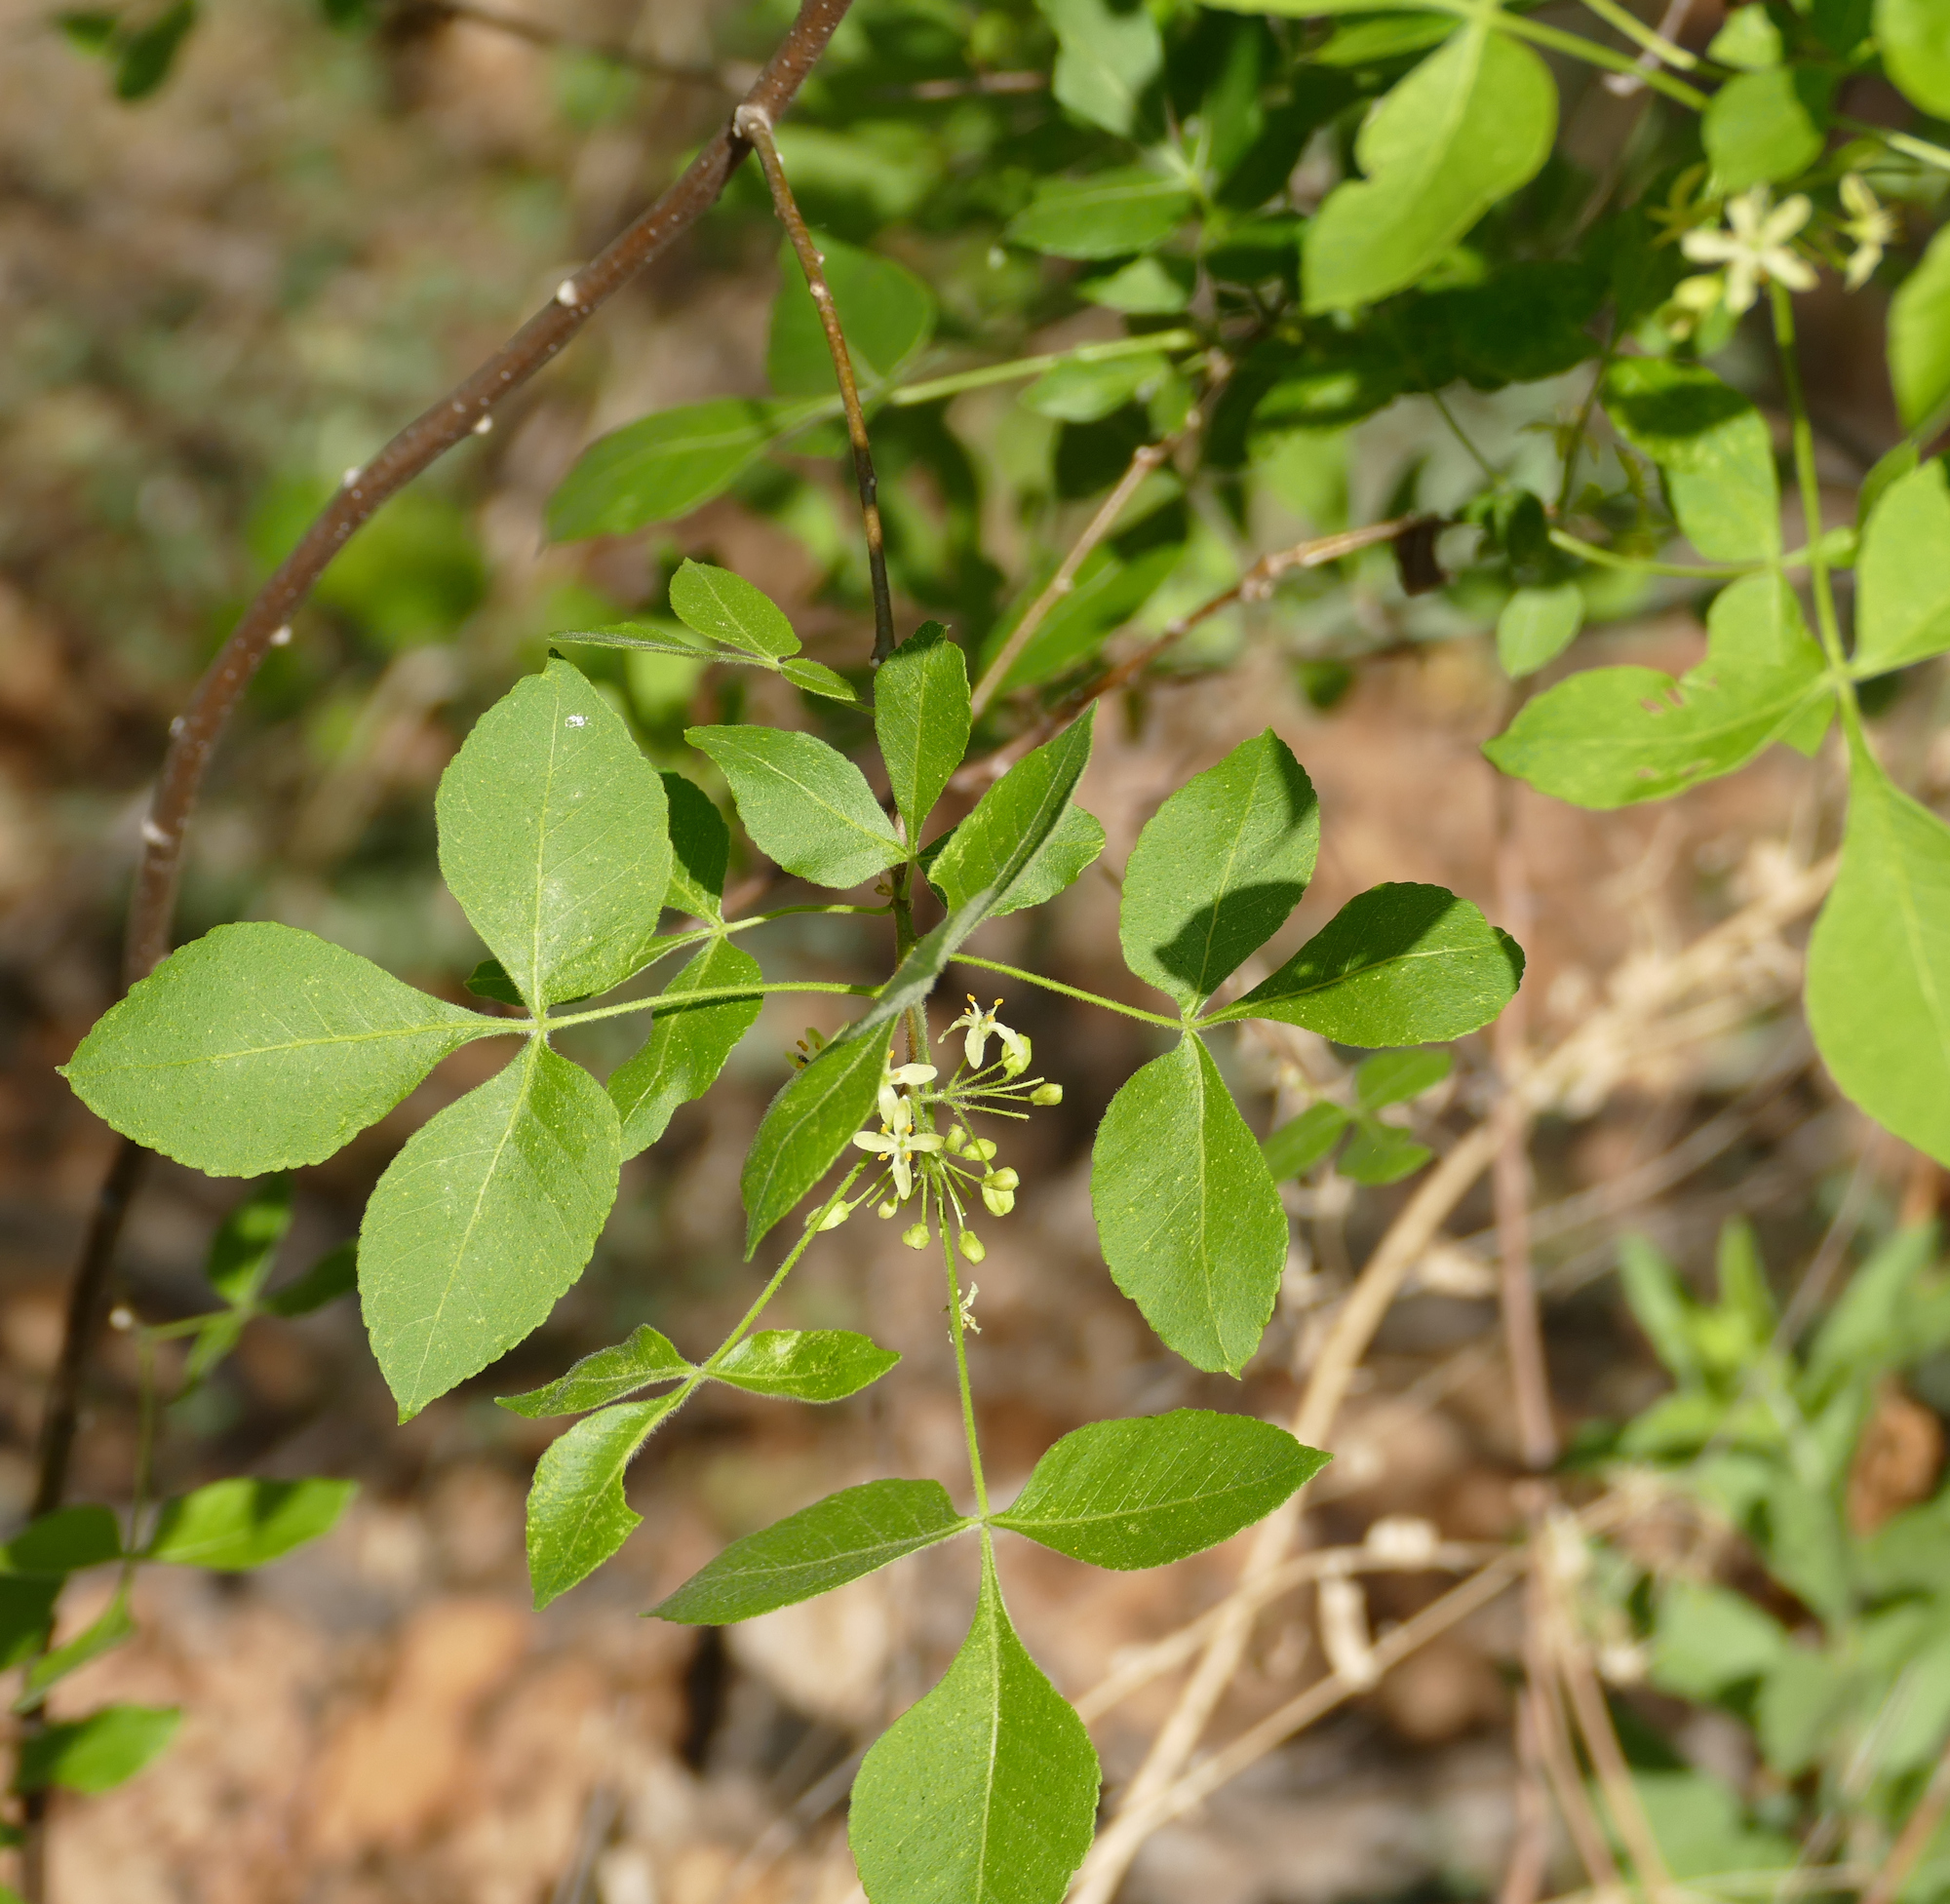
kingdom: Plantae
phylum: Tracheophyta
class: Magnoliopsida
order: Sapindales
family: Rutaceae
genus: Ptelea
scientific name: Ptelea trifoliata
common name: Common hop-tree
